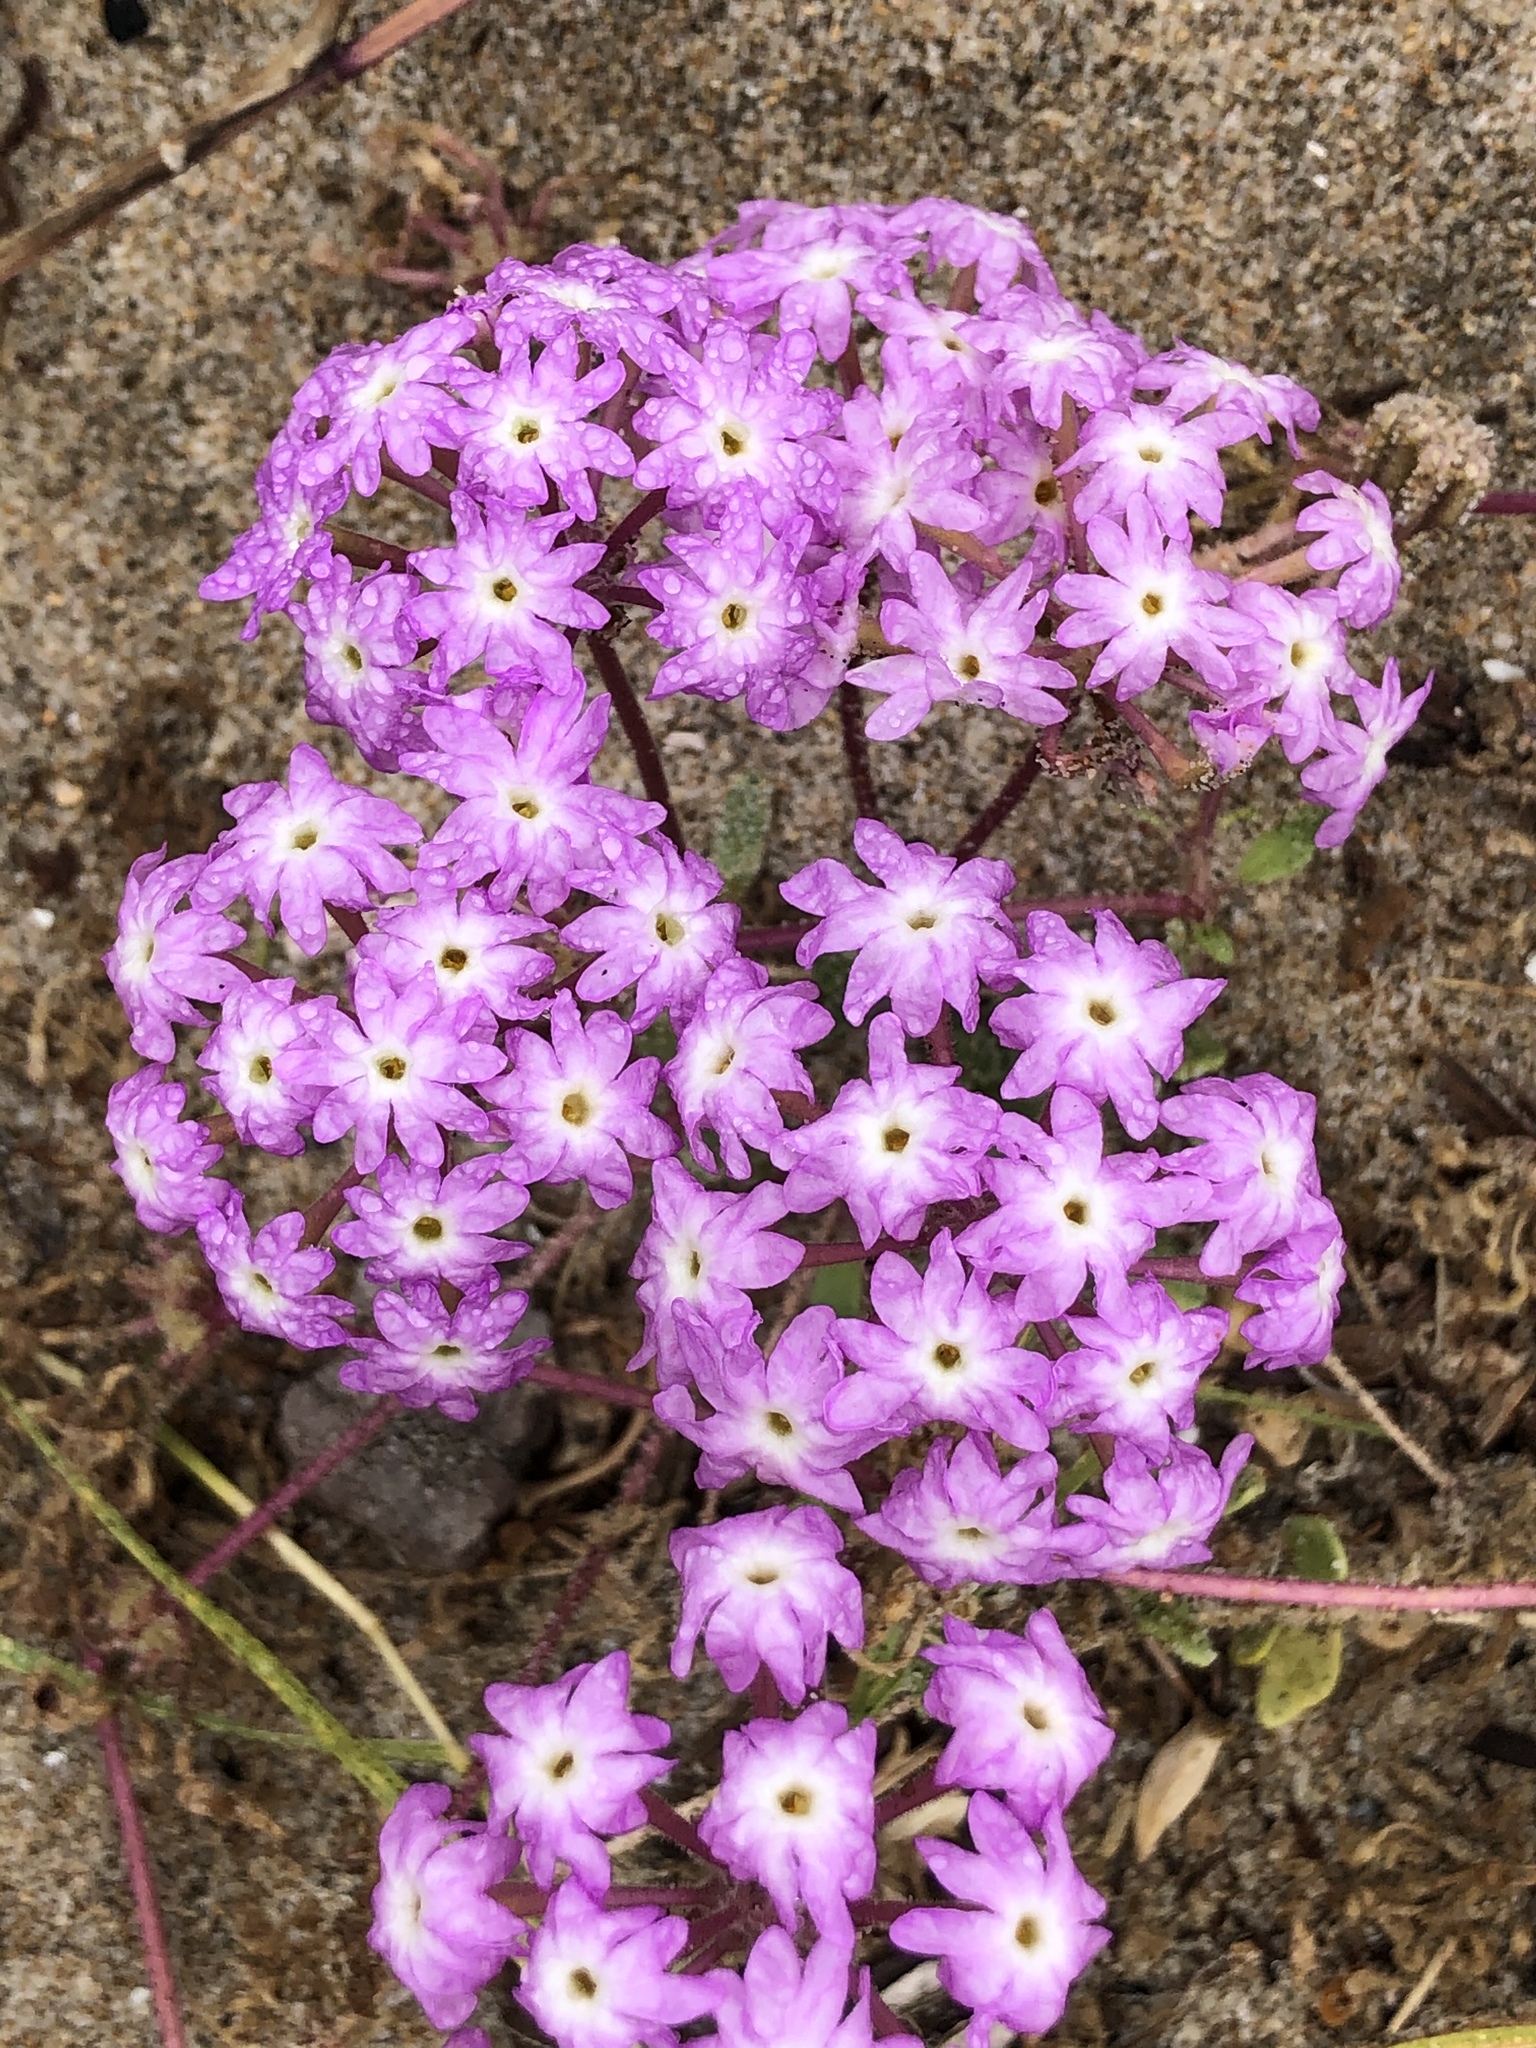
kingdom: Plantae
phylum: Tracheophyta
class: Magnoliopsida
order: Caryophyllales
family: Nyctaginaceae
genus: Abronia
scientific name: Abronia umbellata
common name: Sand-verbena
